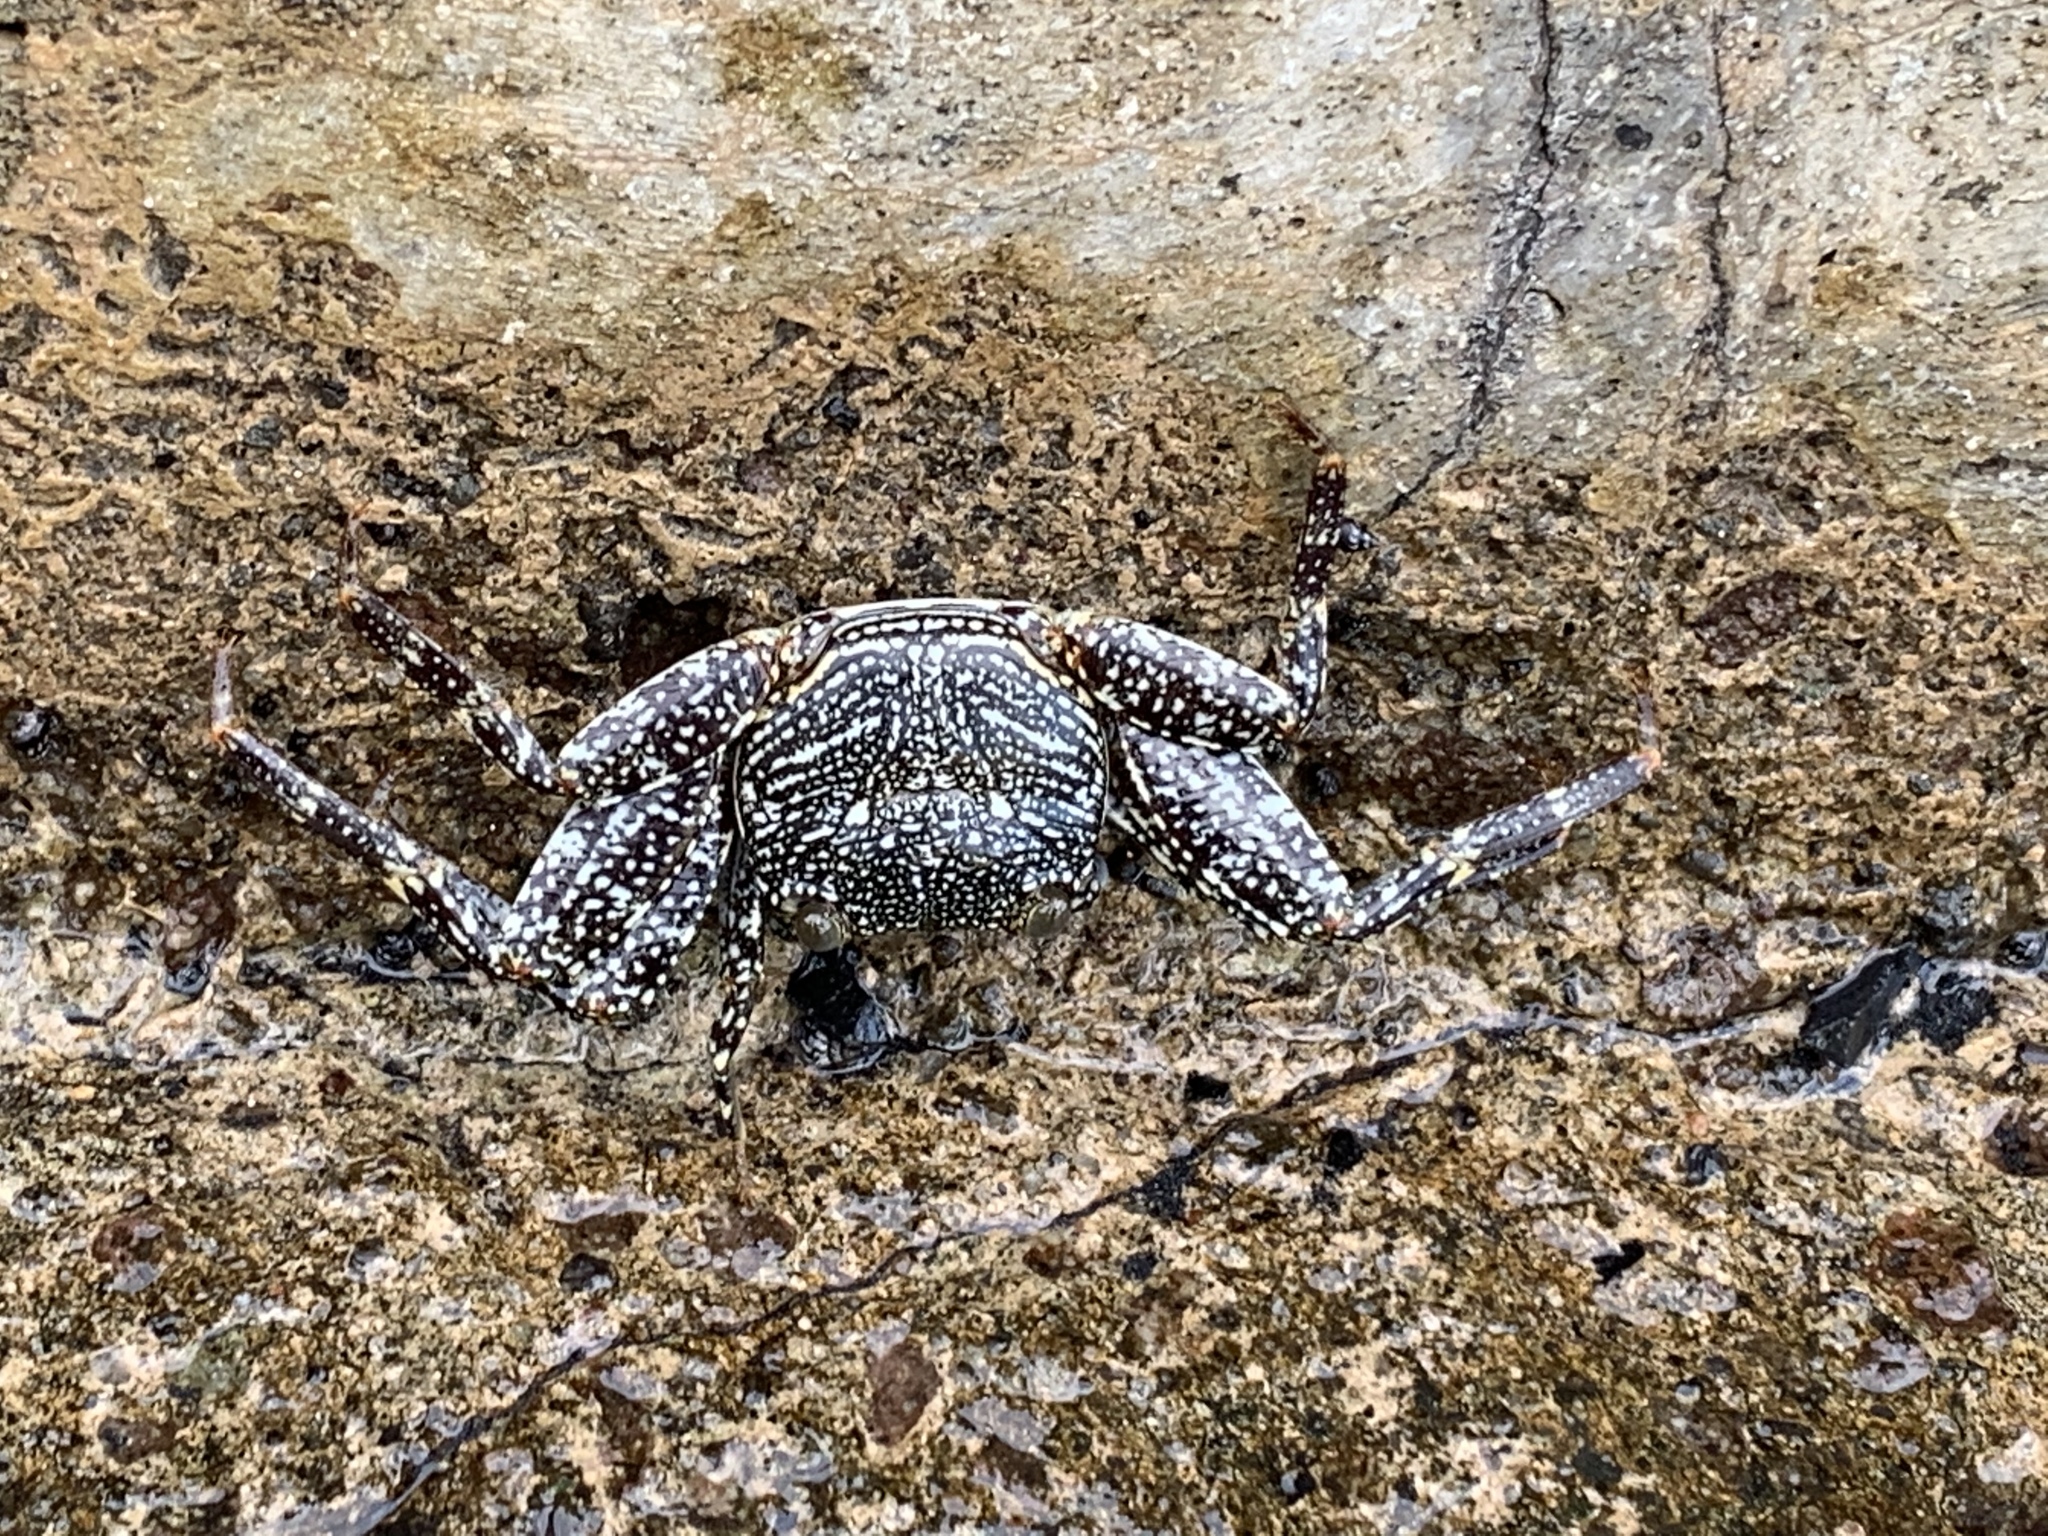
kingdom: Animalia
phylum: Arthropoda
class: Malacostraca
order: Decapoda
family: Grapsidae
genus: Grapsus
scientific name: Grapsus grapsus
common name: Sally lightfoot
